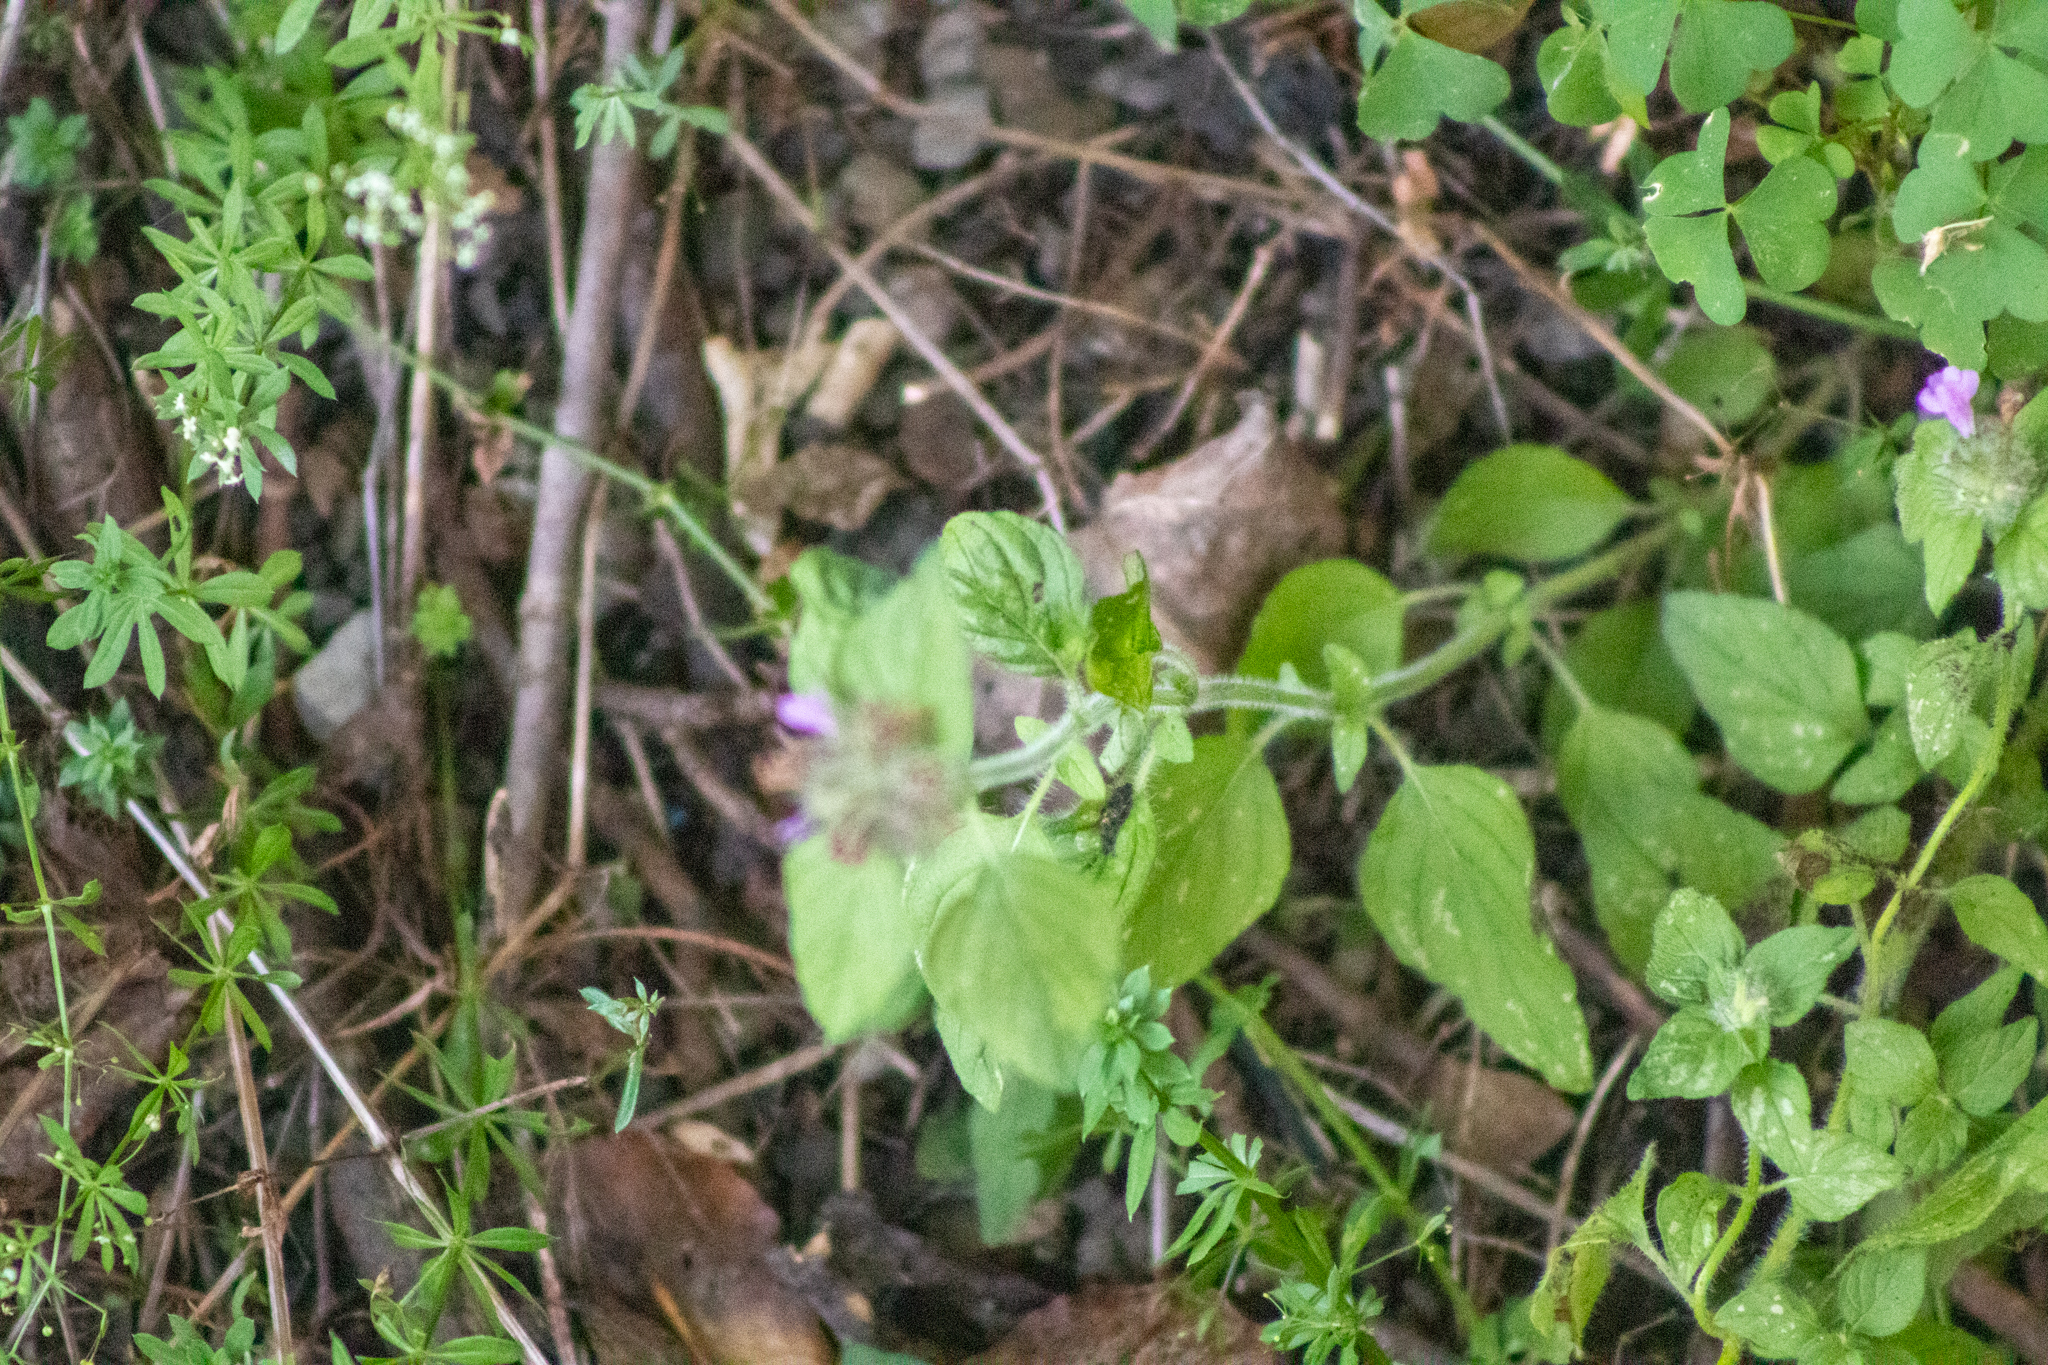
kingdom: Plantae
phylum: Tracheophyta
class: Magnoliopsida
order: Lamiales
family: Lamiaceae
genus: Clinopodium
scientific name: Clinopodium vulgare
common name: Wild basil
